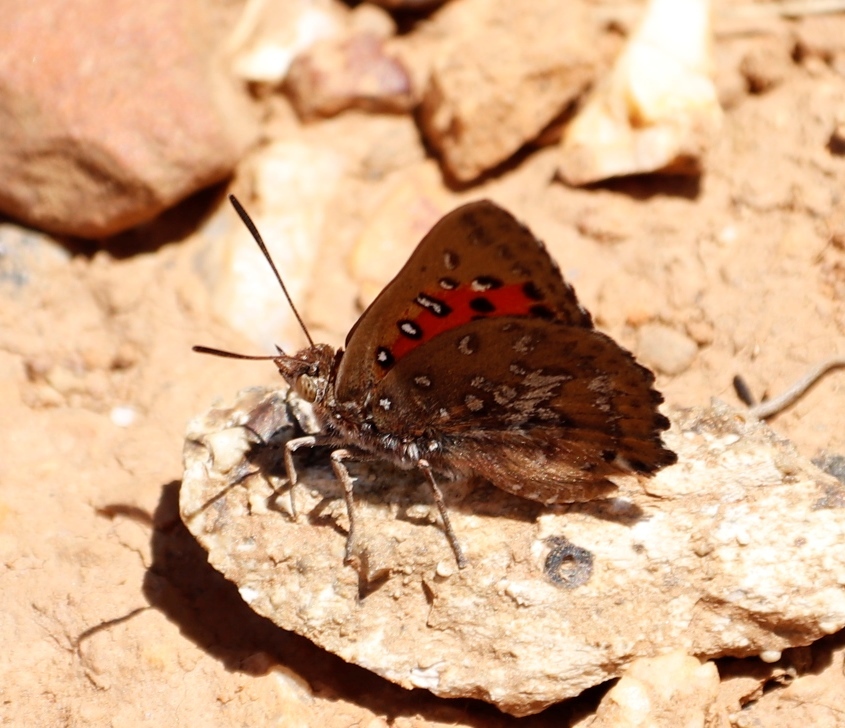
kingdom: Animalia
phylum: Arthropoda
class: Insecta
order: Lepidoptera
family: Lycaenidae
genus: Aloeides
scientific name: Aloeides thyra
